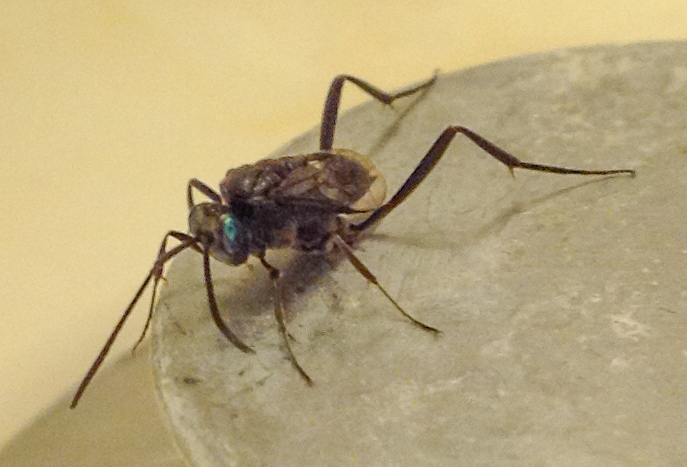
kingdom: Animalia
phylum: Arthropoda
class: Insecta
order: Hymenoptera
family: Evaniidae
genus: Evania
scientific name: Evania appendigaster
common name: Ensign wasp
